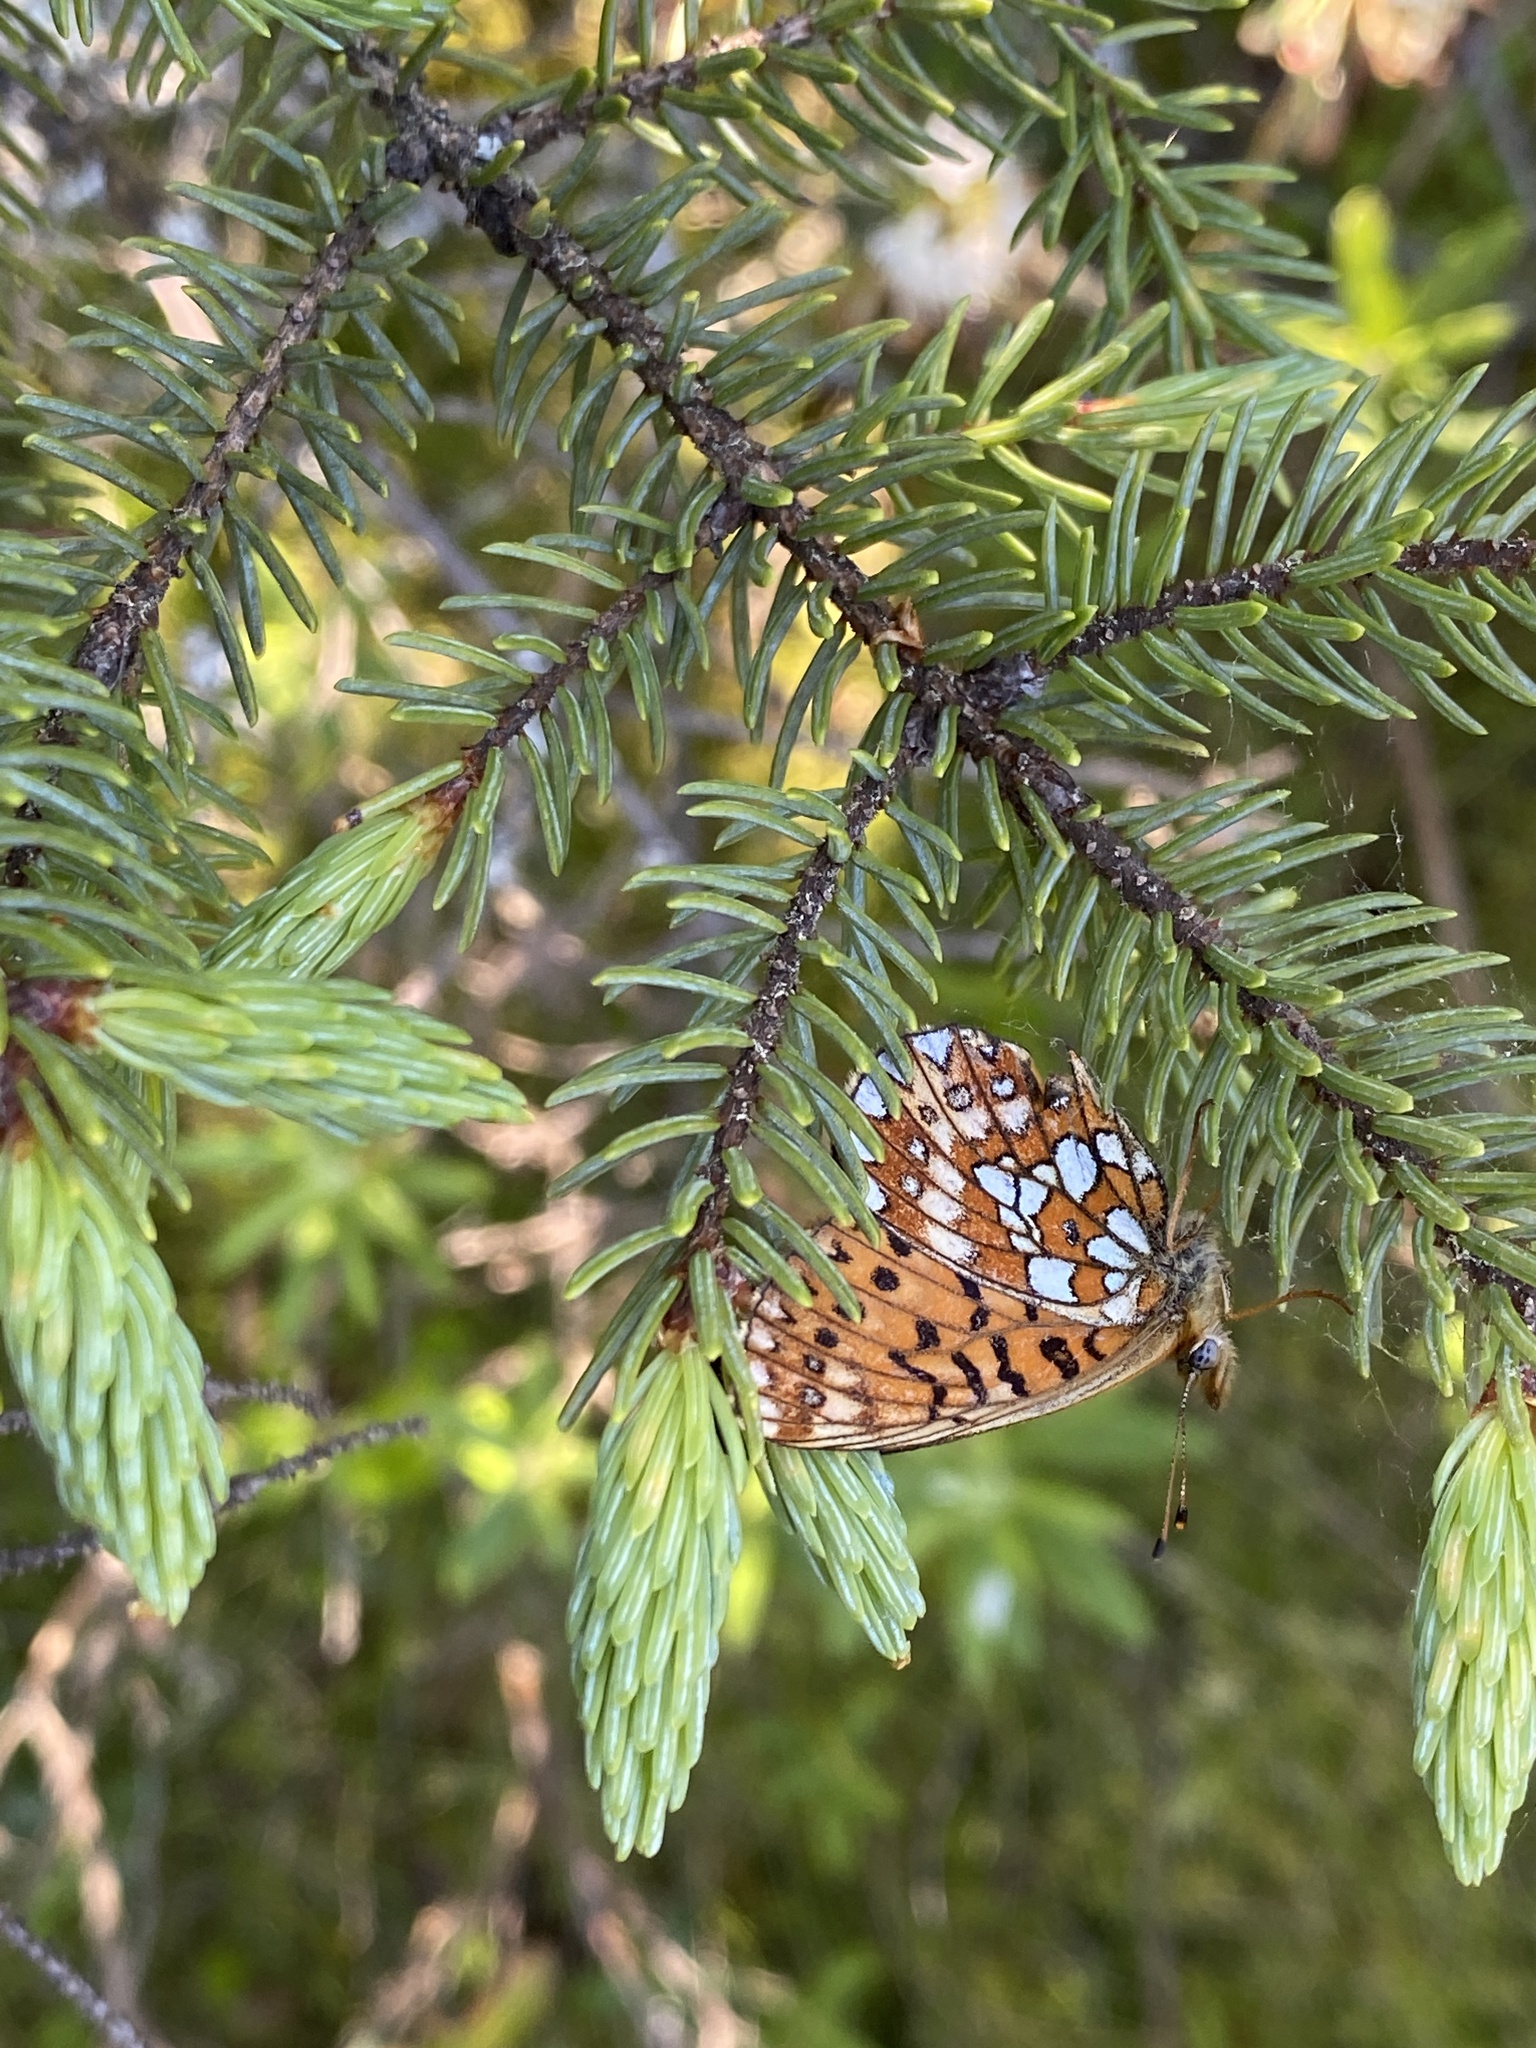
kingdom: Animalia
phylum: Arthropoda
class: Insecta
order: Lepidoptera
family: Nymphalidae
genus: Boloria
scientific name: Boloria eunomia
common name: Bog fritillary
